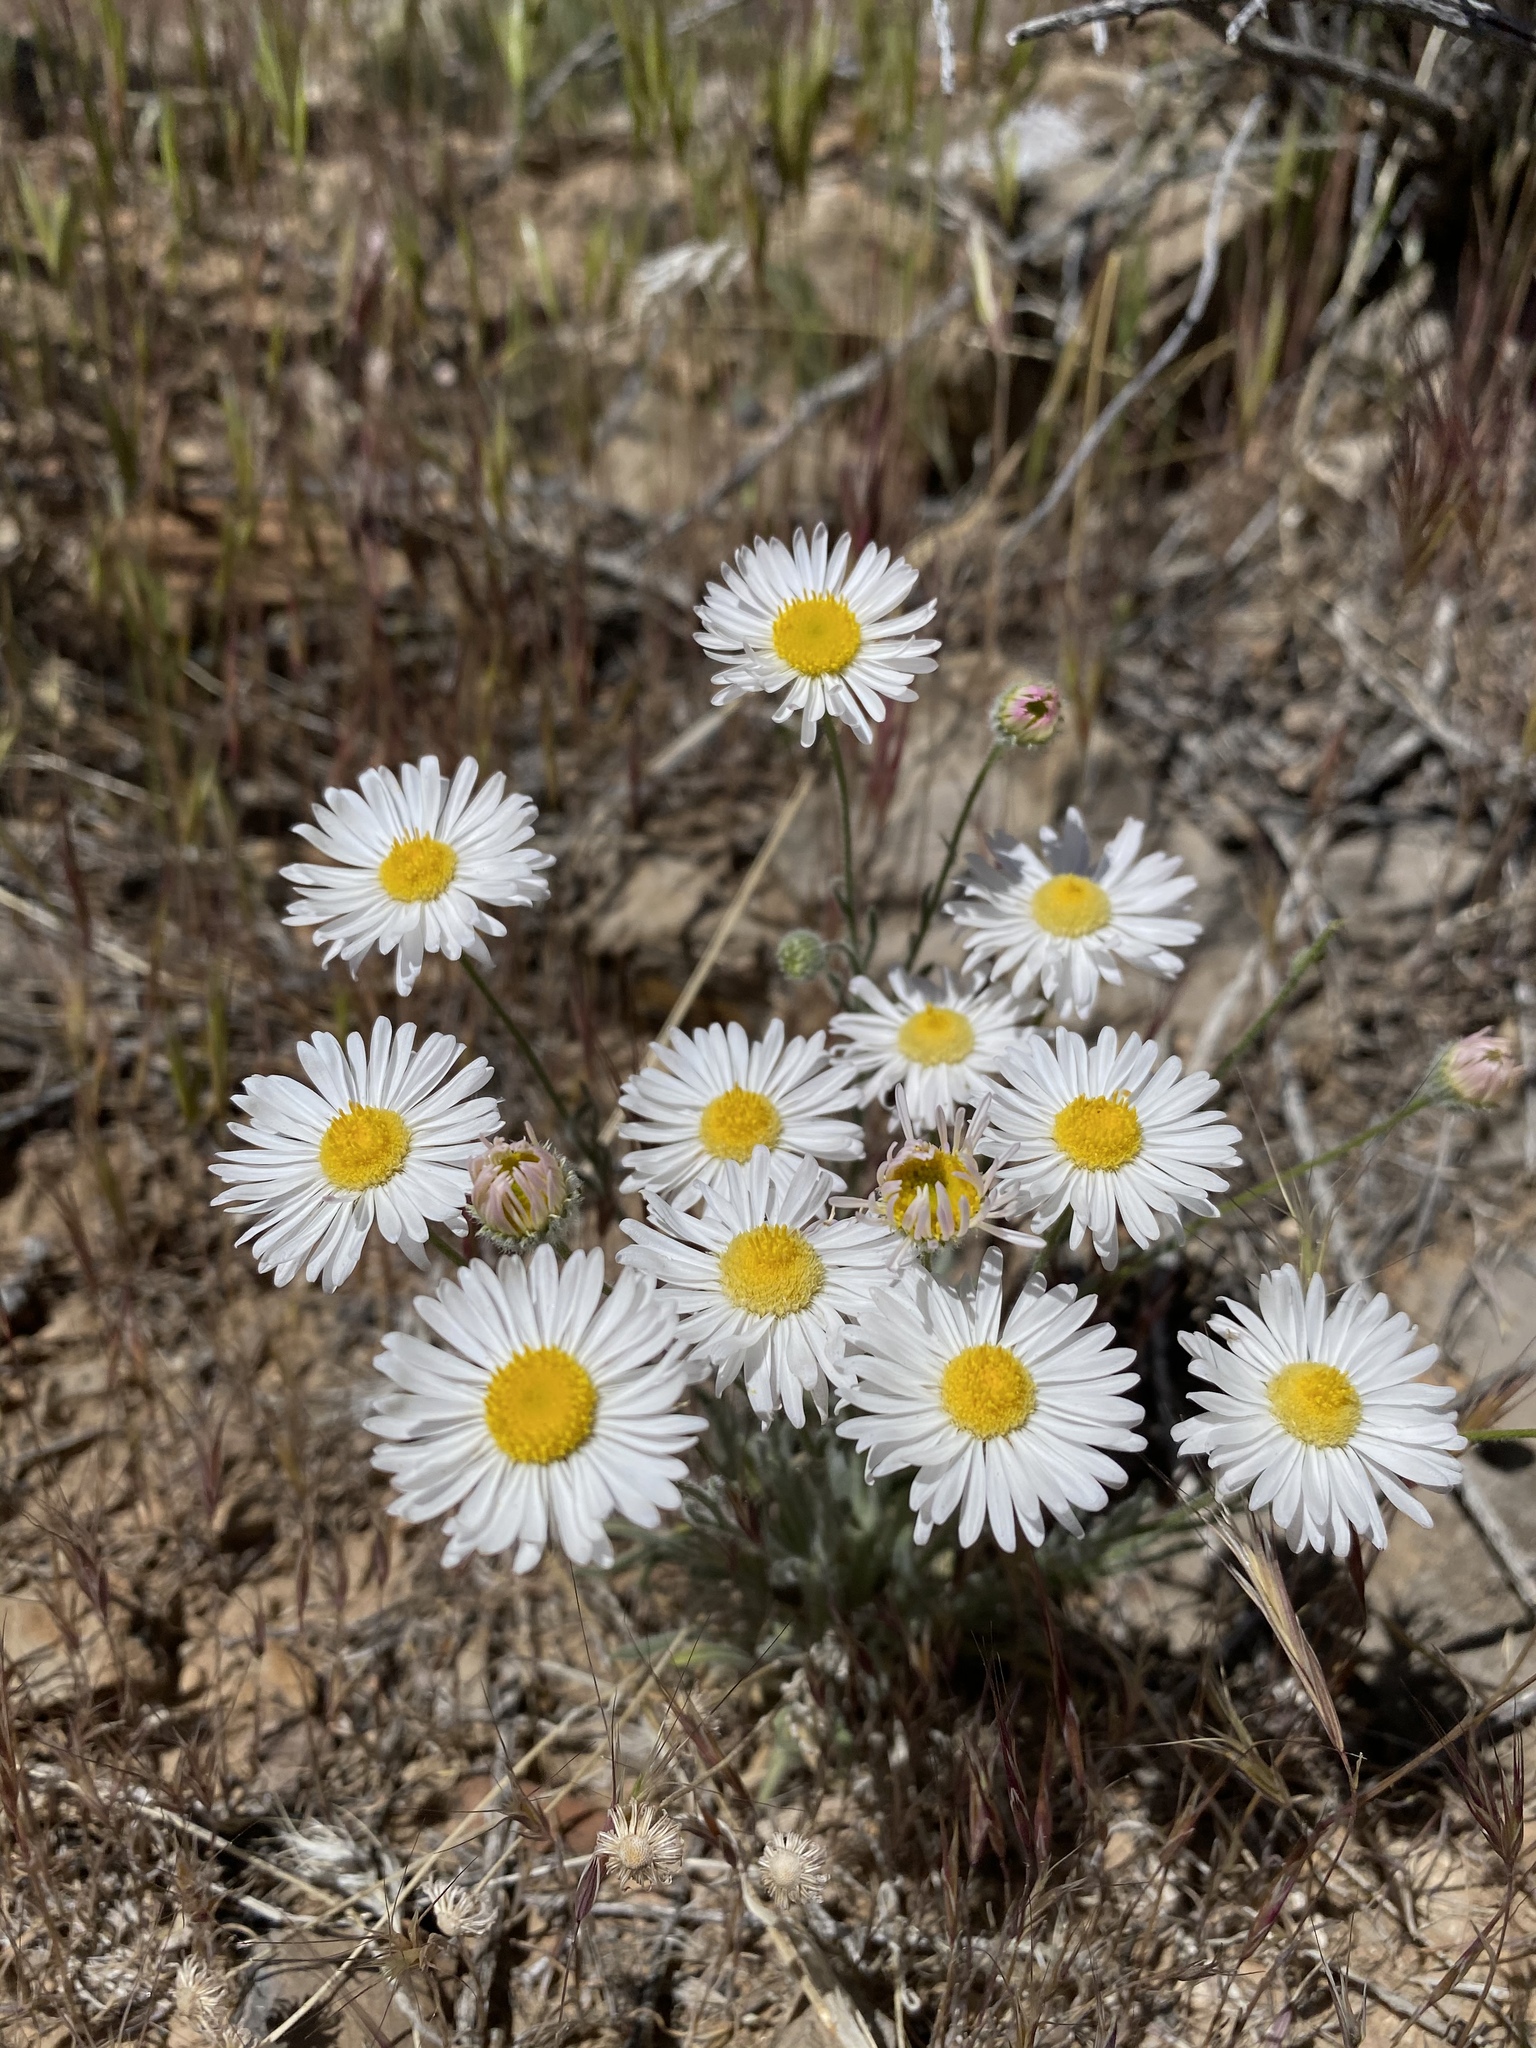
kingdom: Plantae
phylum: Tracheophyta
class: Magnoliopsida
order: Asterales
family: Asteraceae
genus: Erigeron
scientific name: Erigeron concinnus
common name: Navajo fleabane
